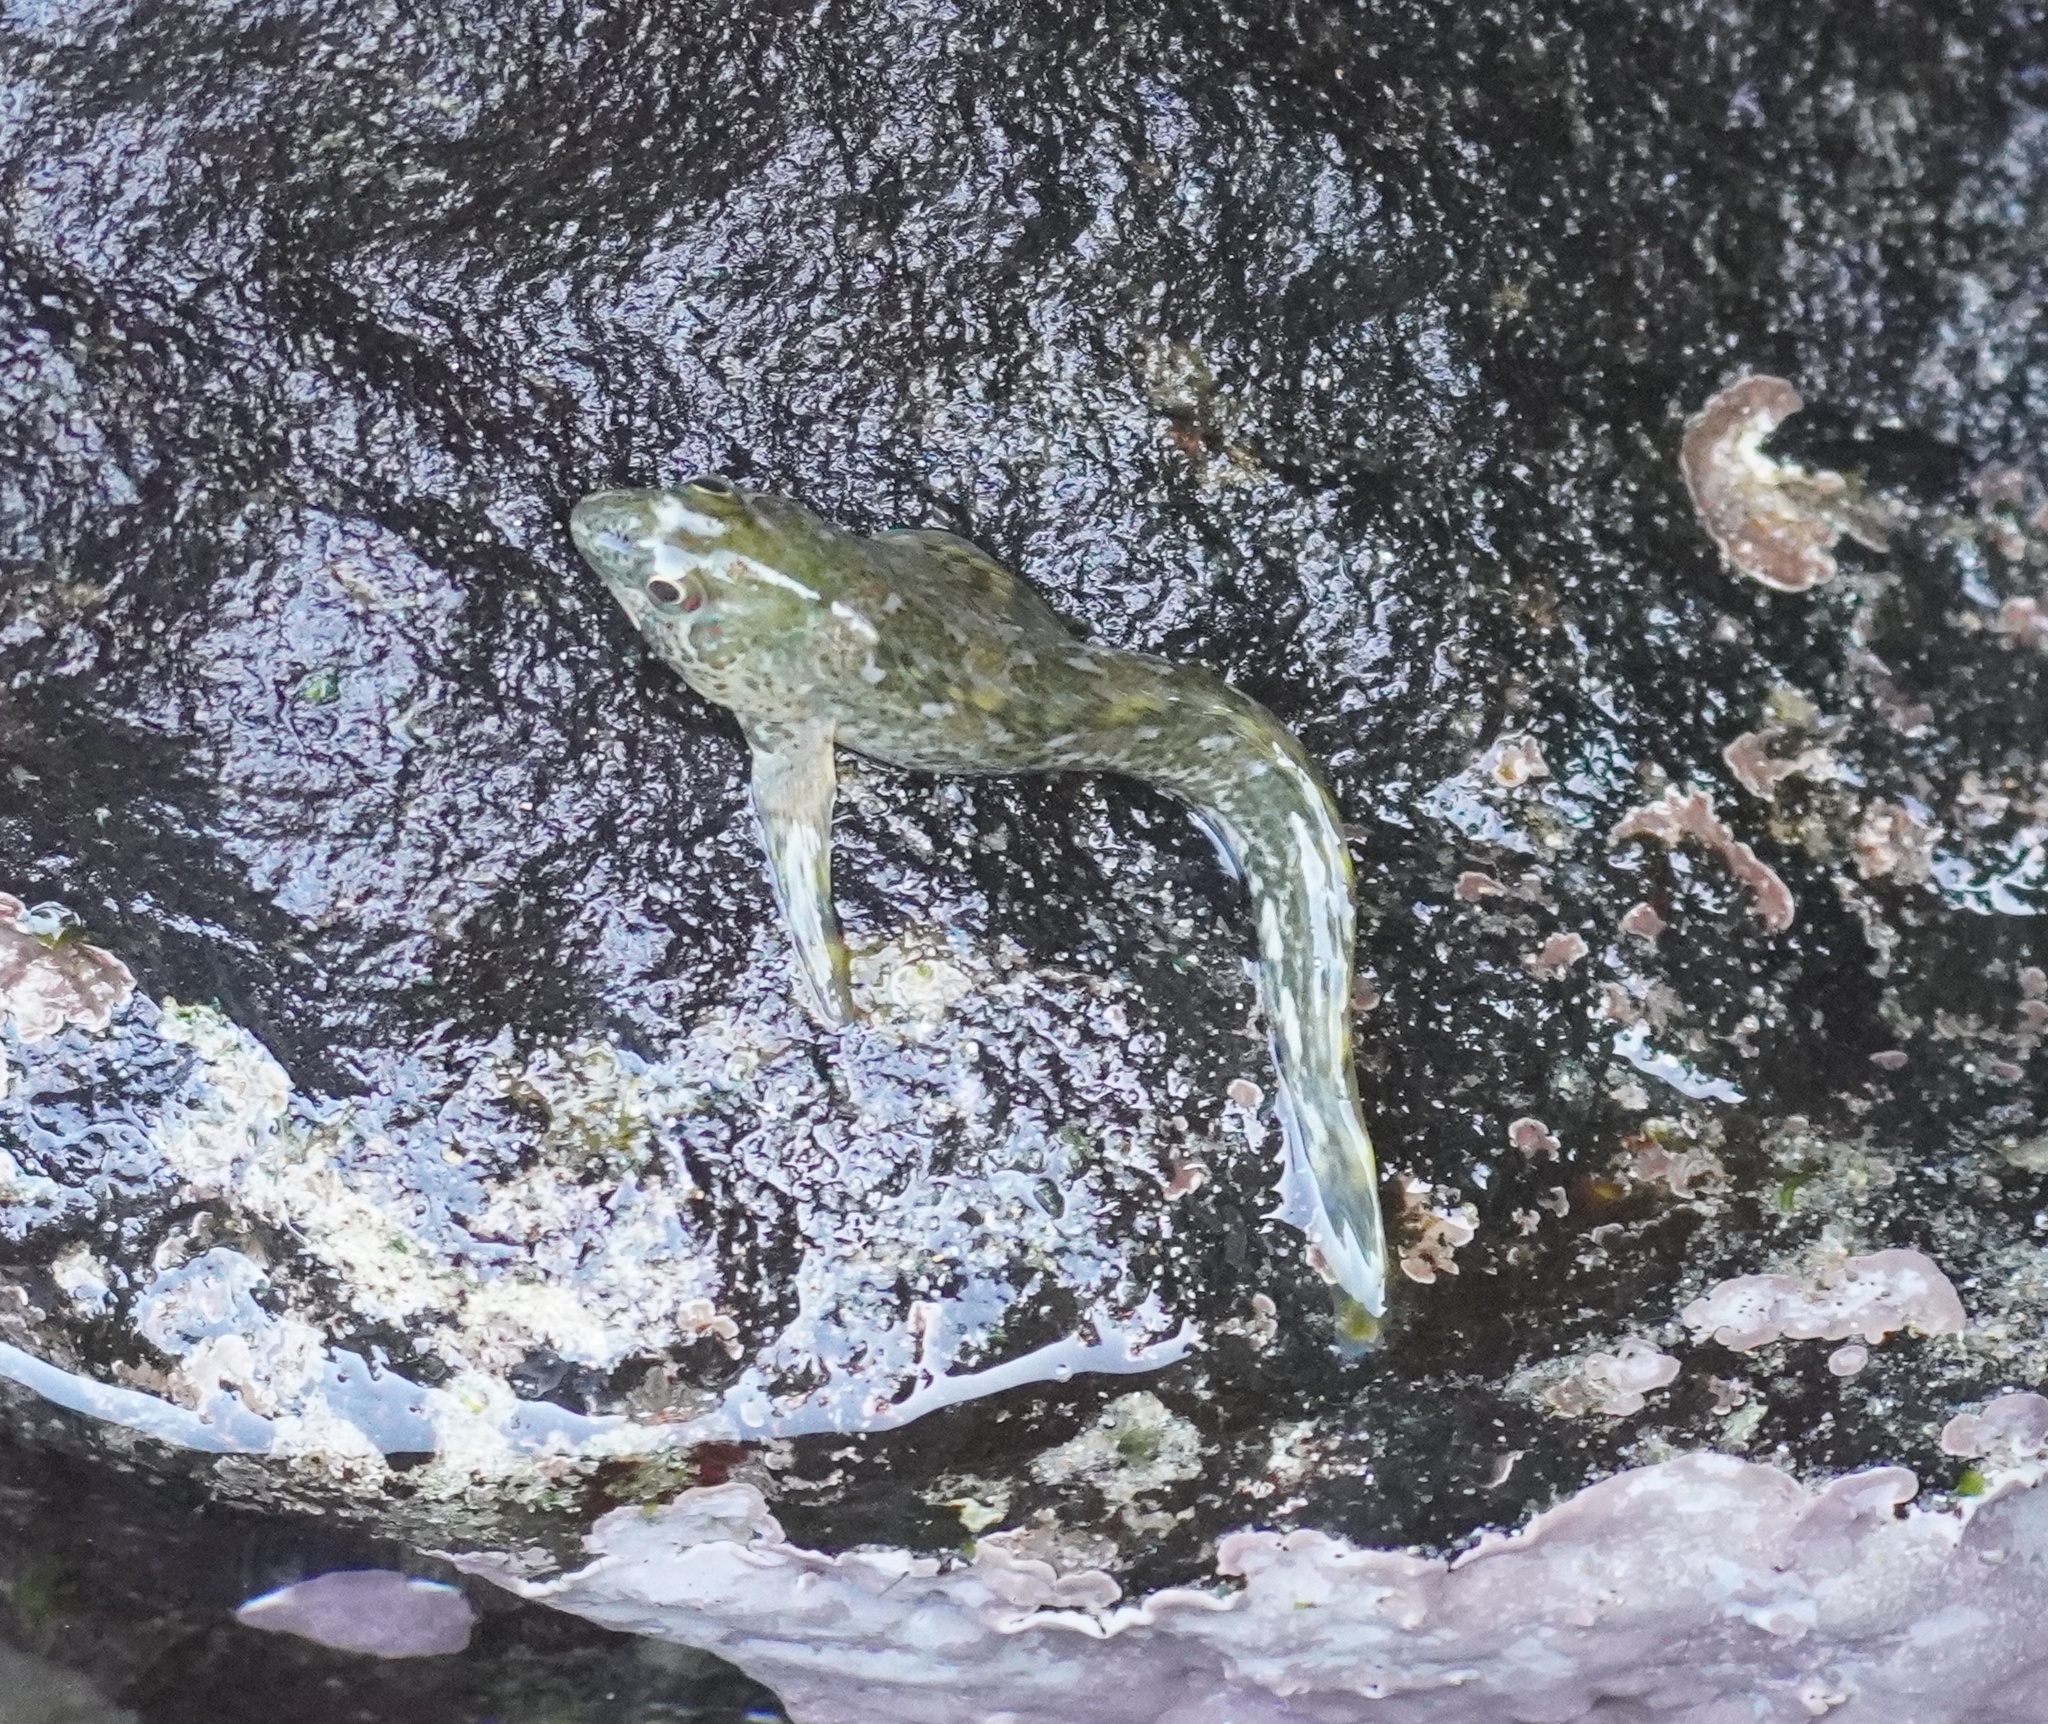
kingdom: Animalia
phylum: Chordata
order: Perciformes
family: Blenniidae
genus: Lipophrys
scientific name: Lipophrys pholis
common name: Shanny
